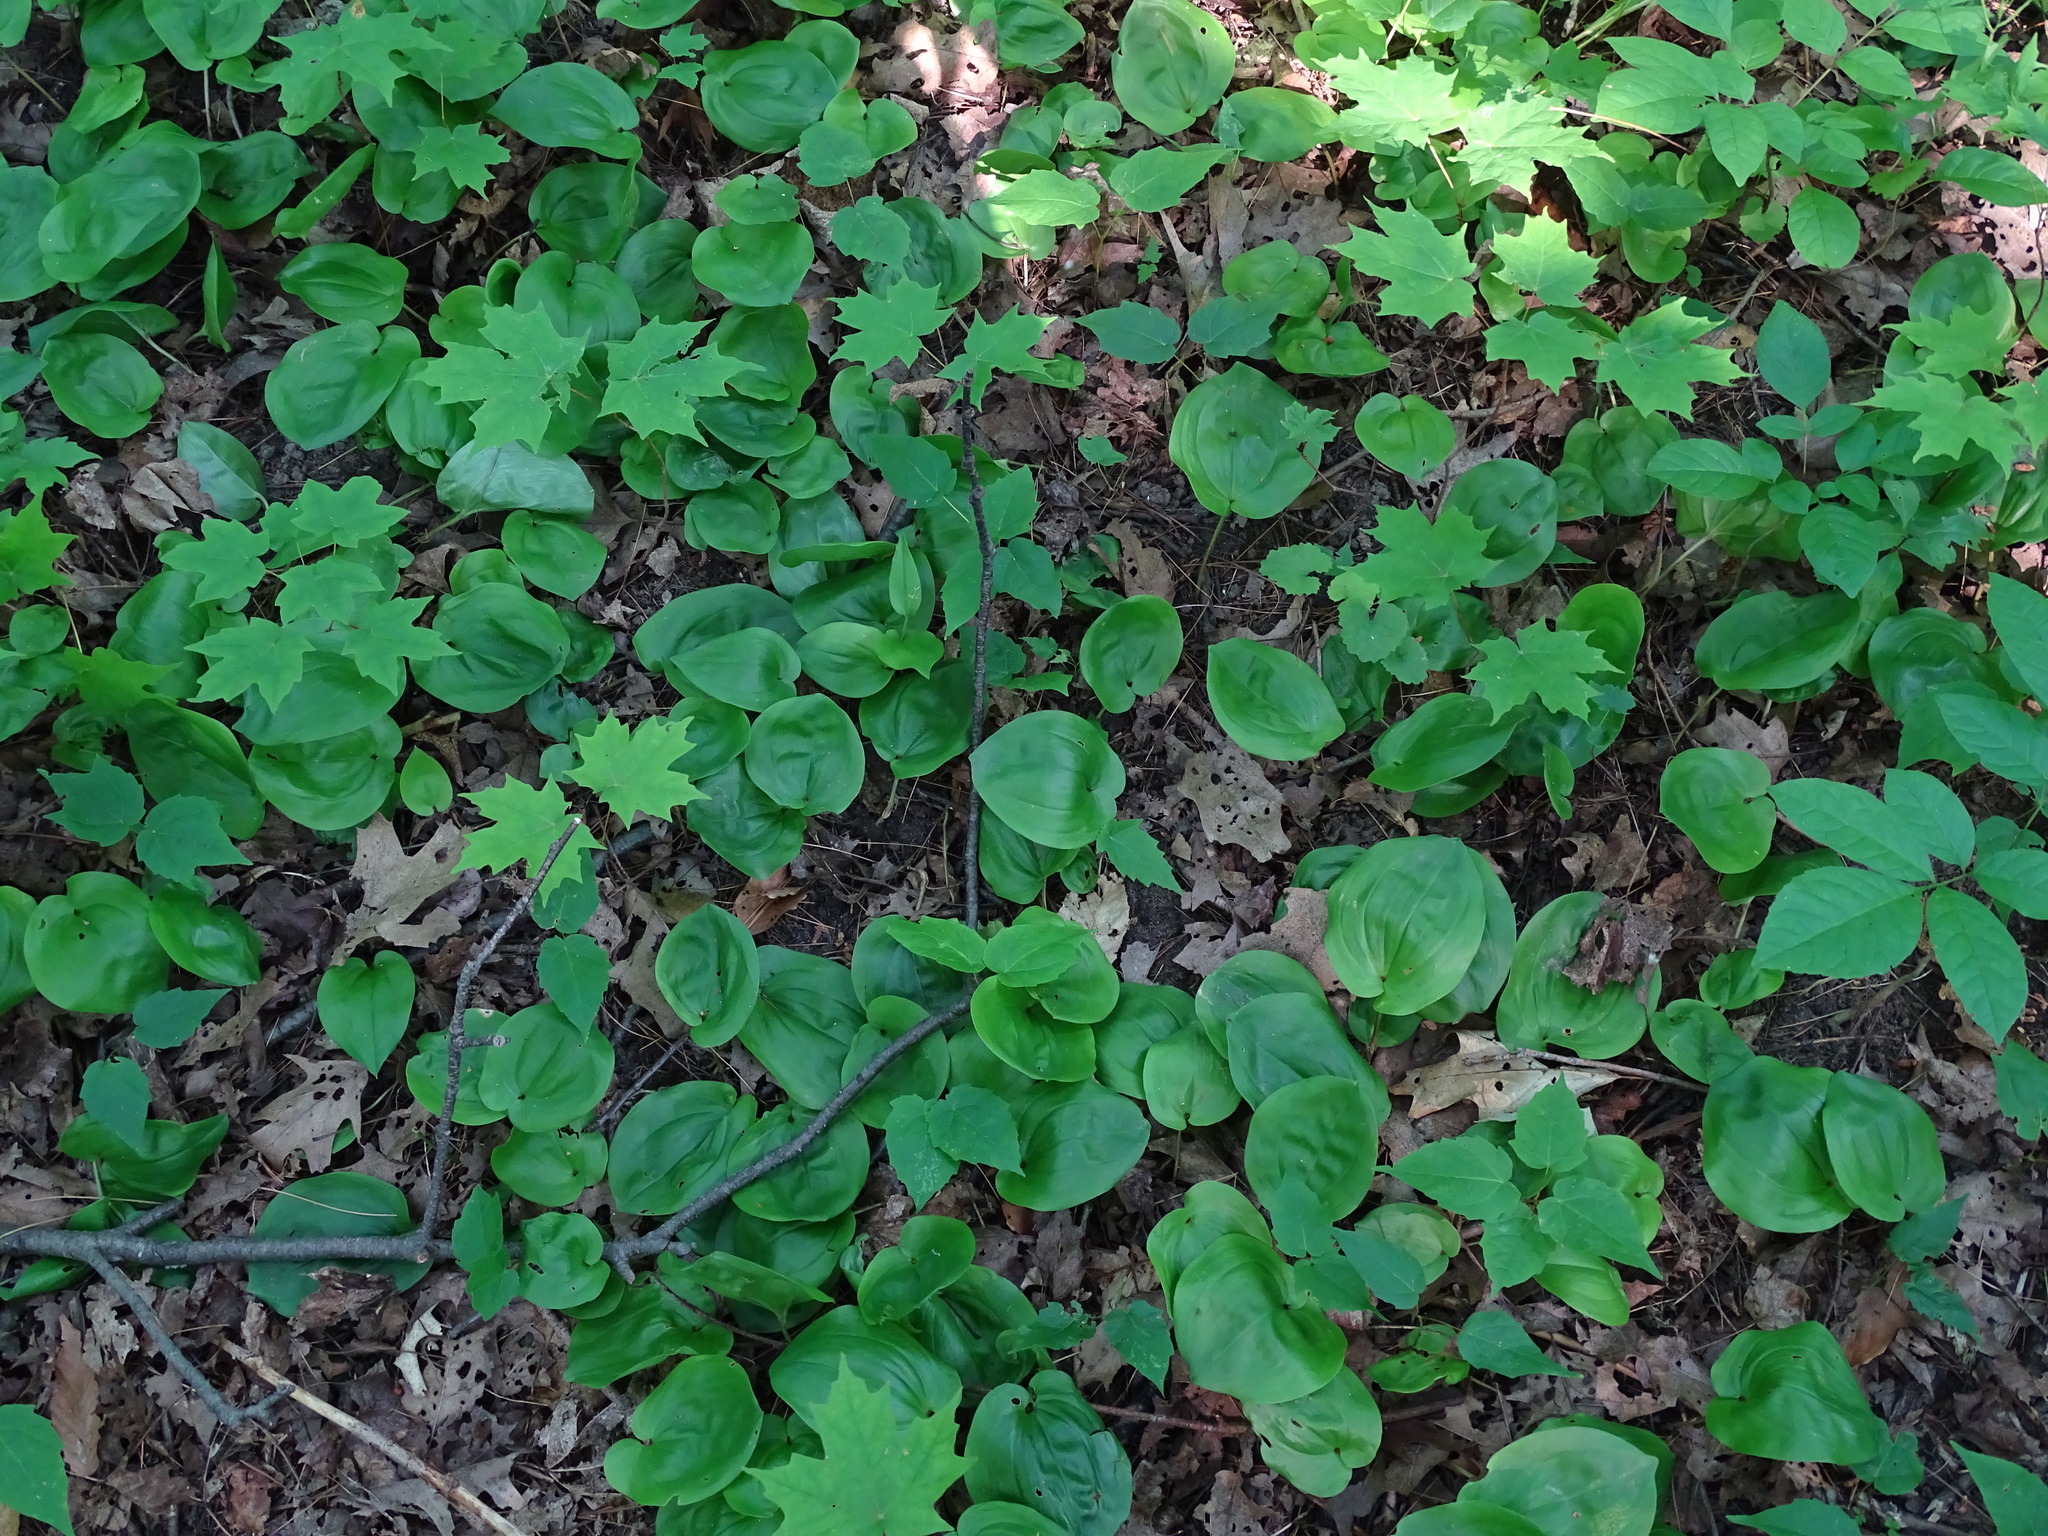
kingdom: Plantae
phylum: Tracheophyta
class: Liliopsida
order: Asparagales
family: Asparagaceae
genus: Maianthemum
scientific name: Maianthemum canadense
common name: False lily-of-the-valley
